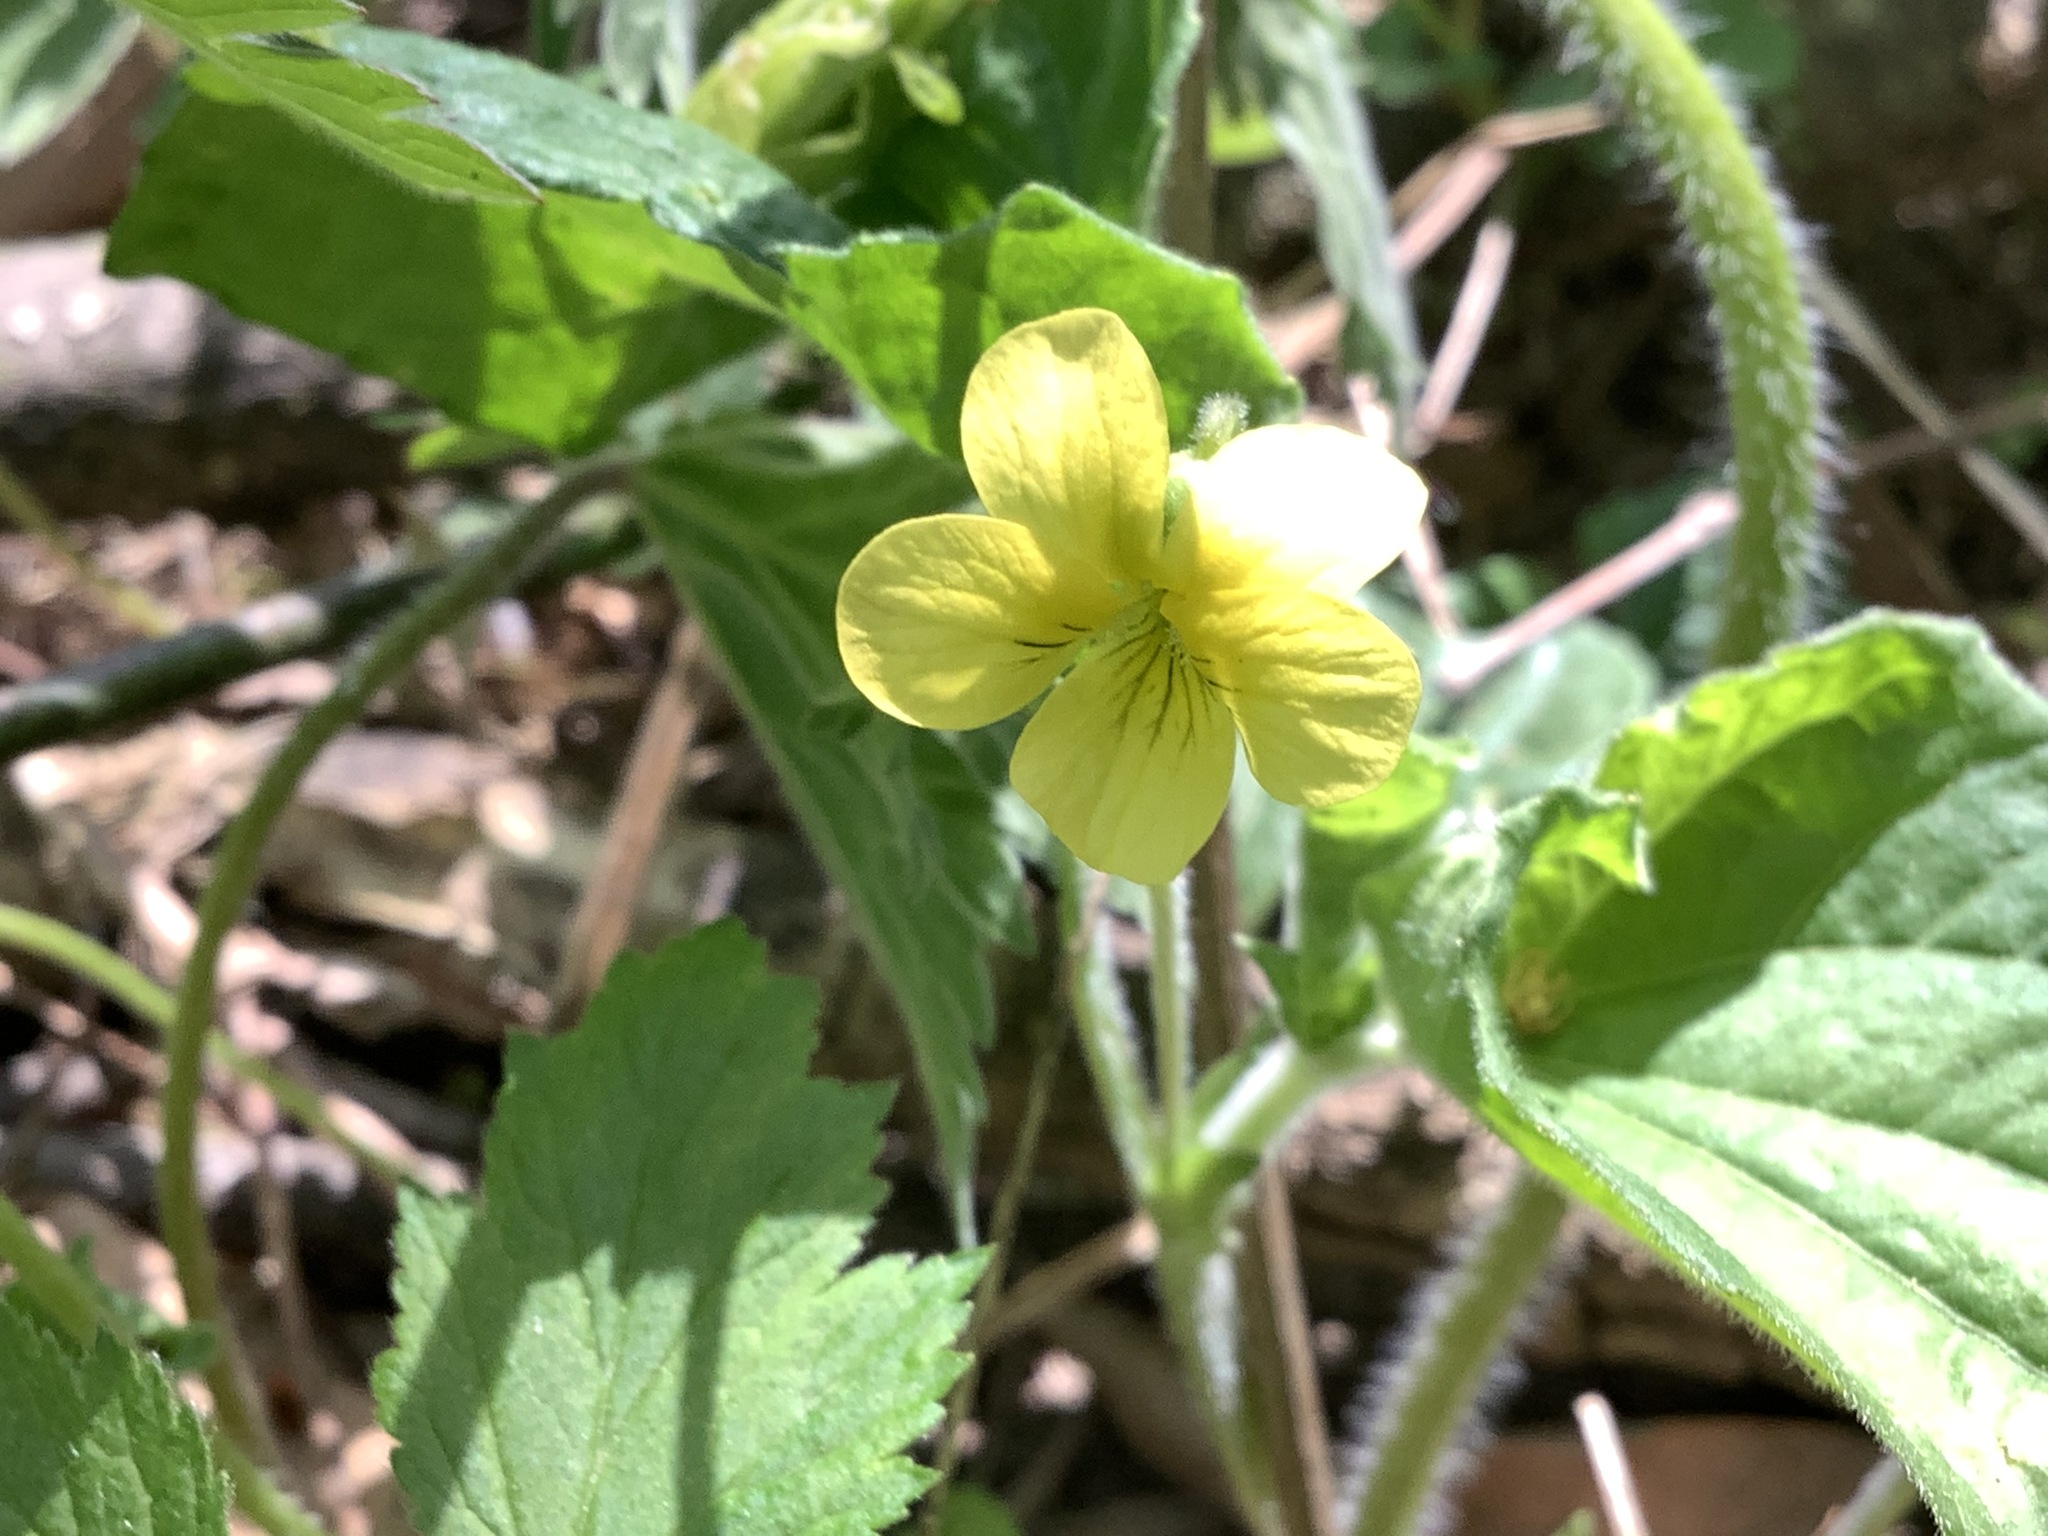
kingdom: Plantae
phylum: Tracheophyta
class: Magnoliopsida
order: Malpighiales
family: Violaceae
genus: Viola
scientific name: Viola eriocarpa
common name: Smooth yellow violet
